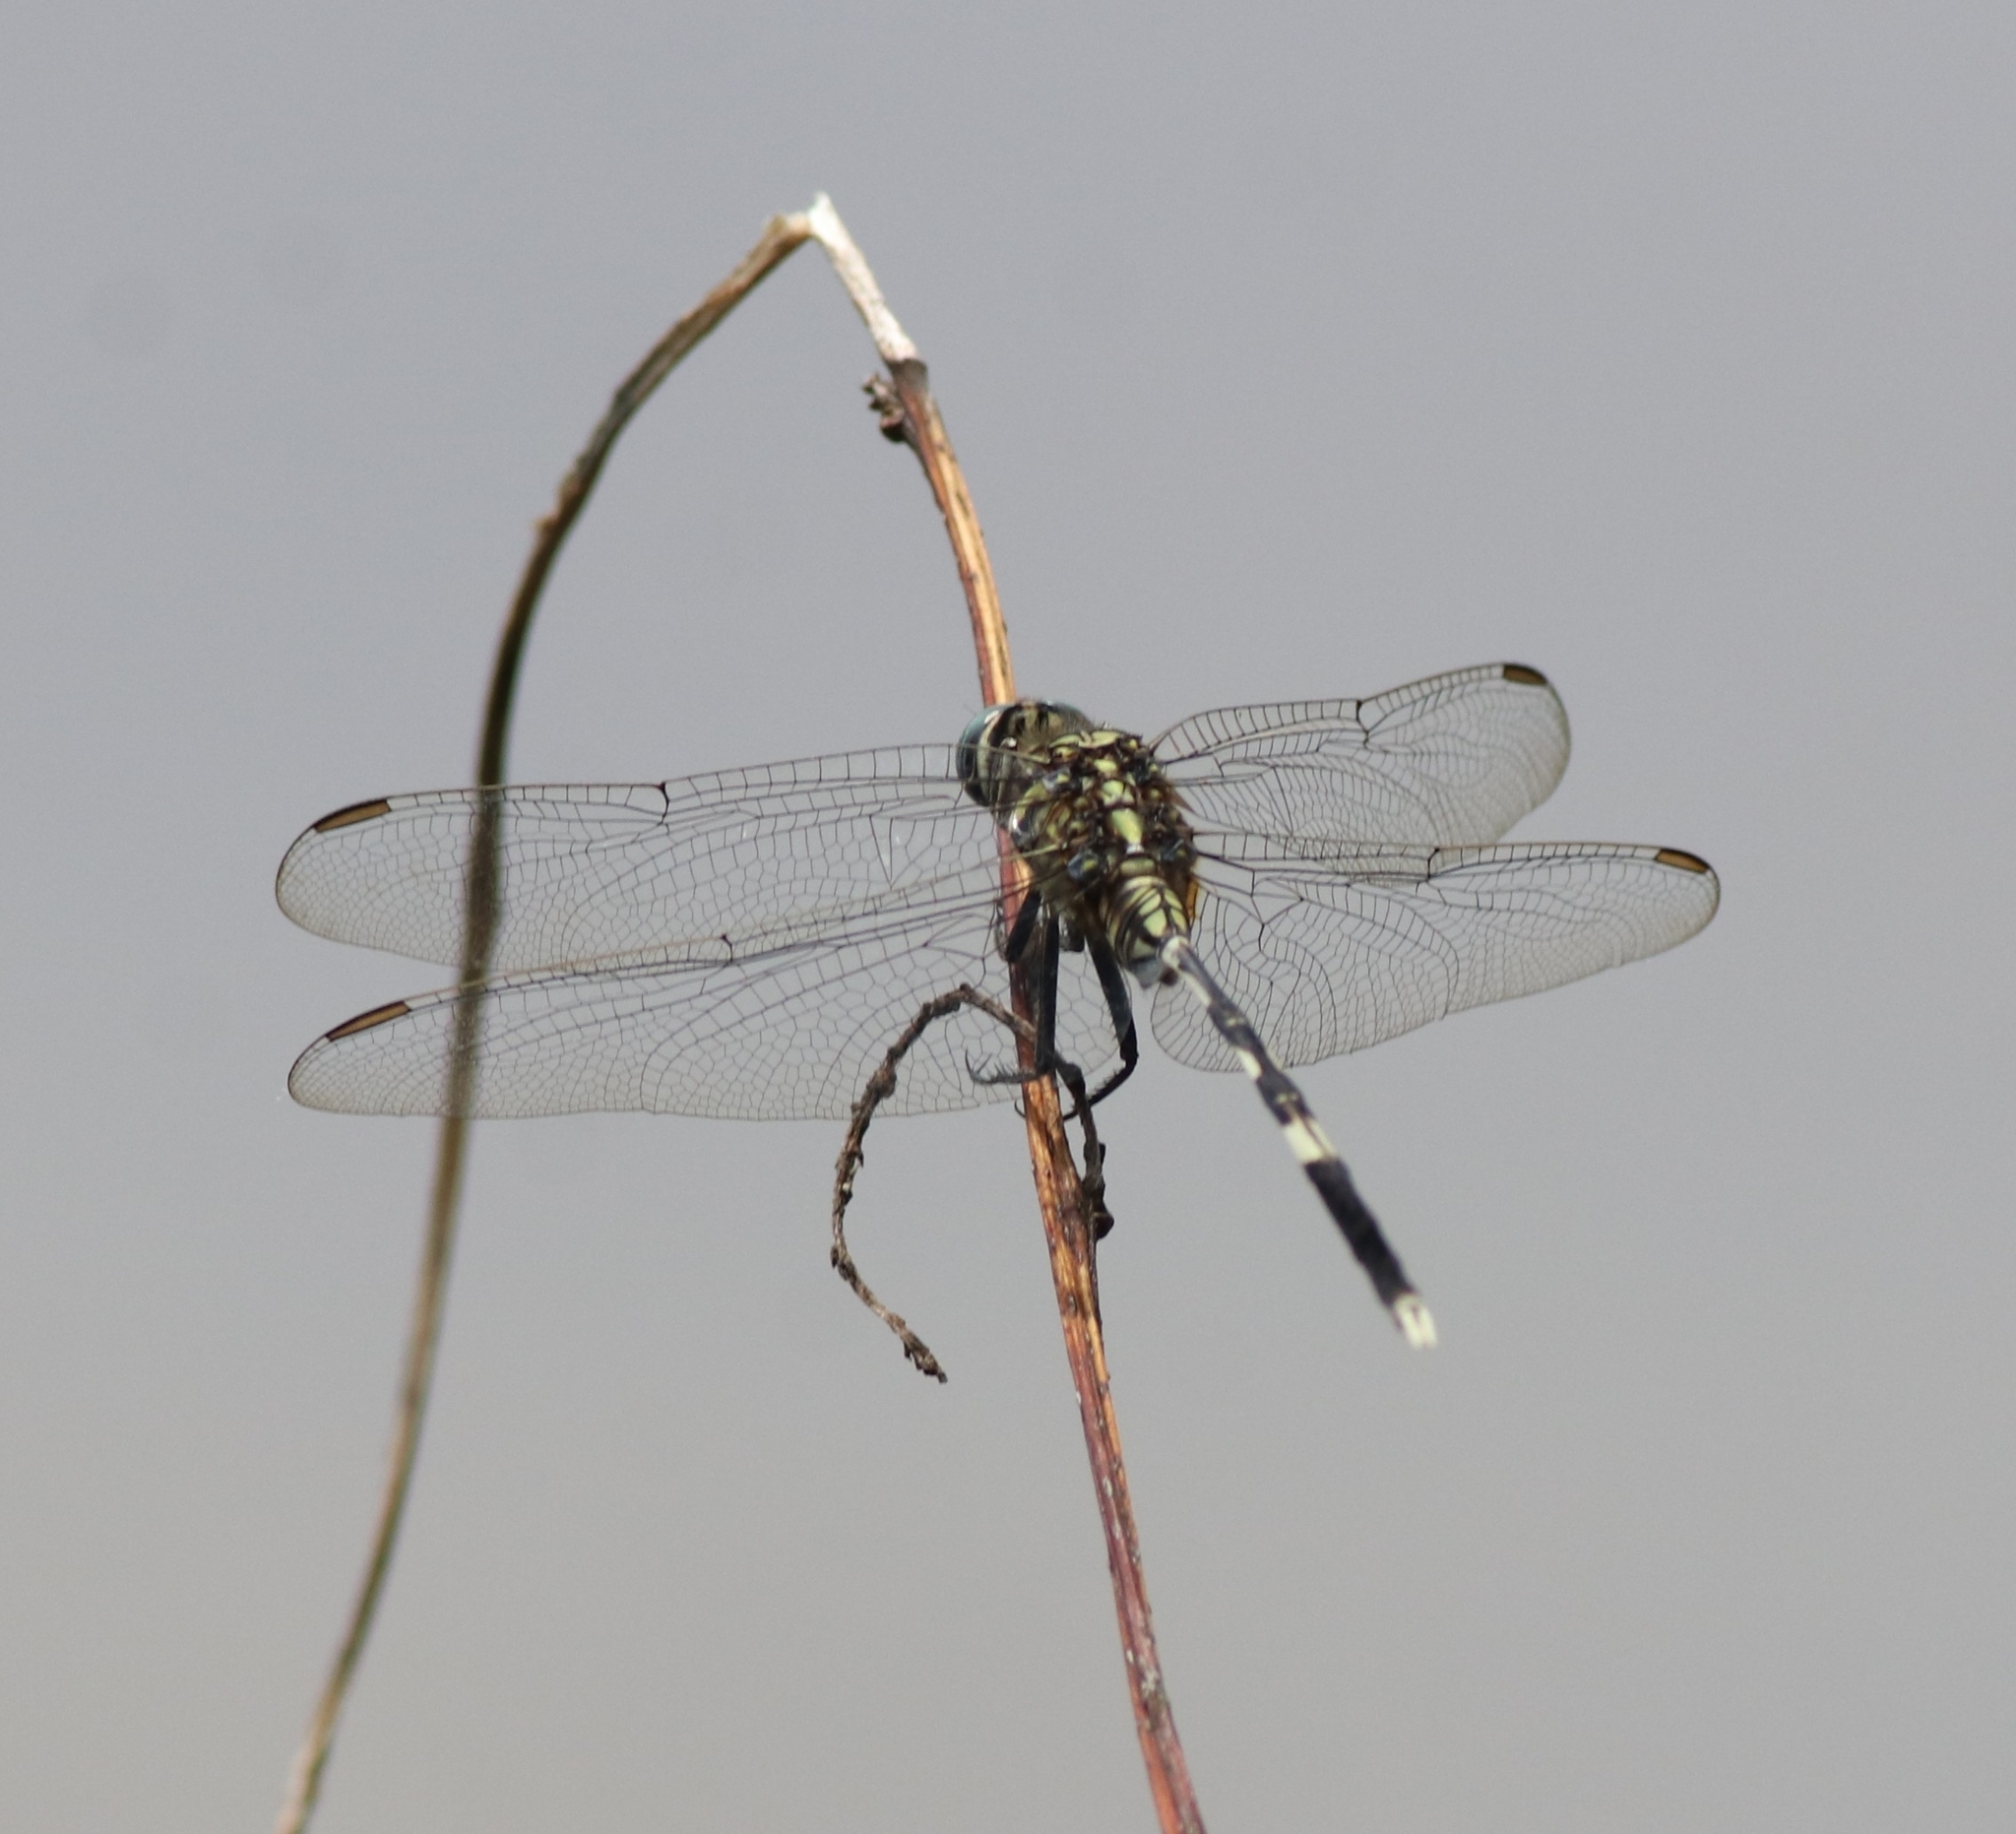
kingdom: Animalia
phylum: Arthropoda
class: Insecta
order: Odonata
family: Libellulidae
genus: Orthetrum
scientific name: Orthetrum sabina
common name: Slender skimmer
